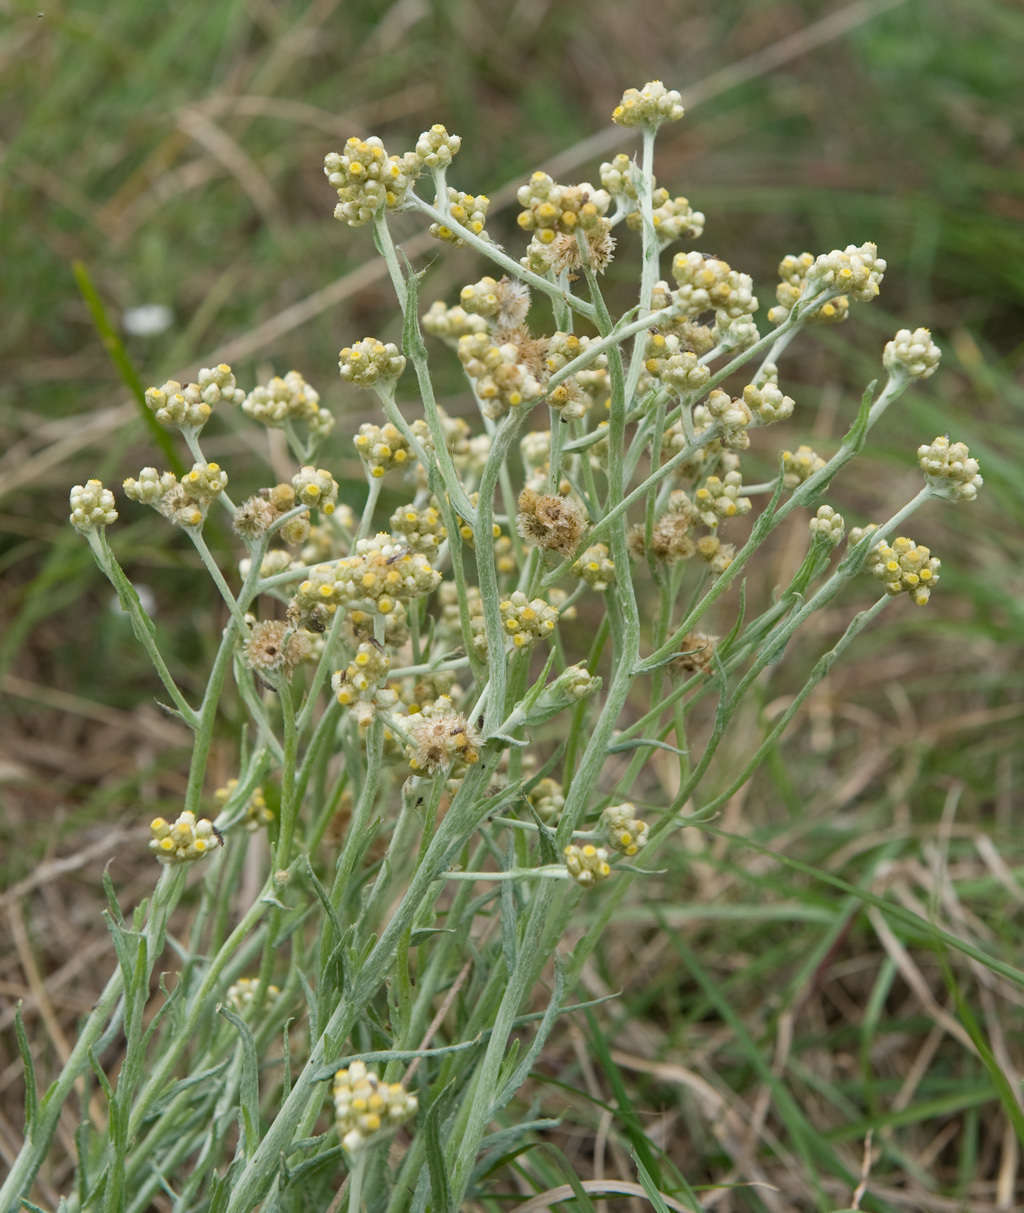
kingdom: Plantae
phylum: Tracheophyta
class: Magnoliopsida
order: Asterales
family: Asteraceae
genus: Helichrysum
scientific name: Helichrysum luteoalbum
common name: Daisy
